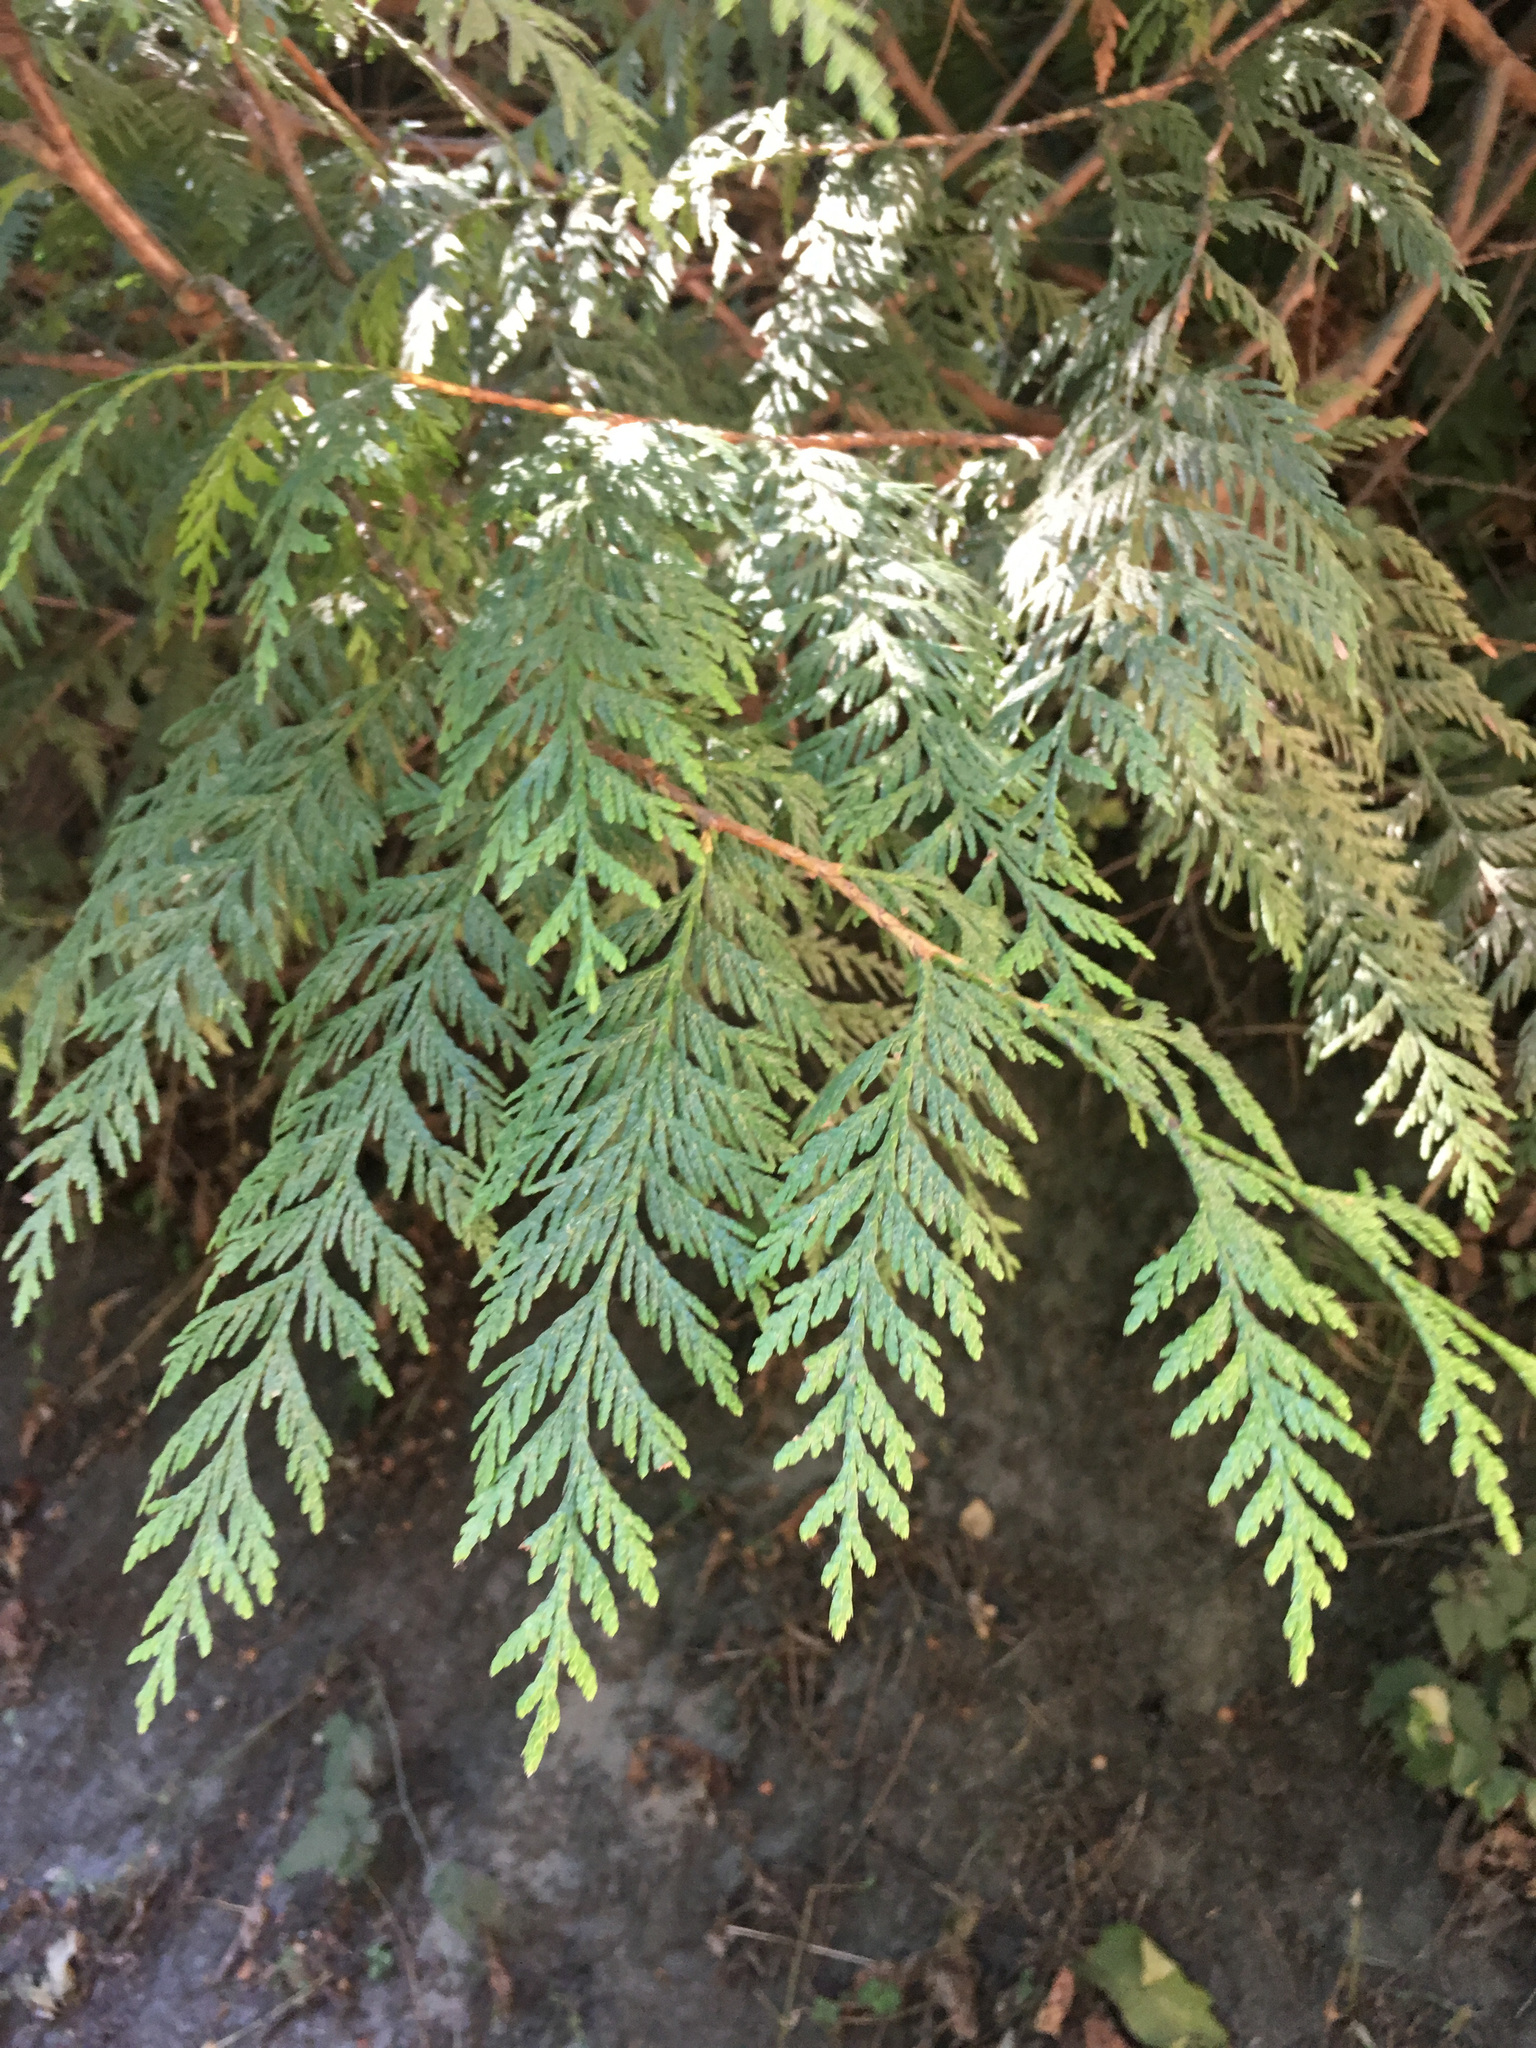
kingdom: Plantae
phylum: Tracheophyta
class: Pinopsida
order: Pinales
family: Cupressaceae
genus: Thuja
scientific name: Thuja plicata
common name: Western red-cedar
